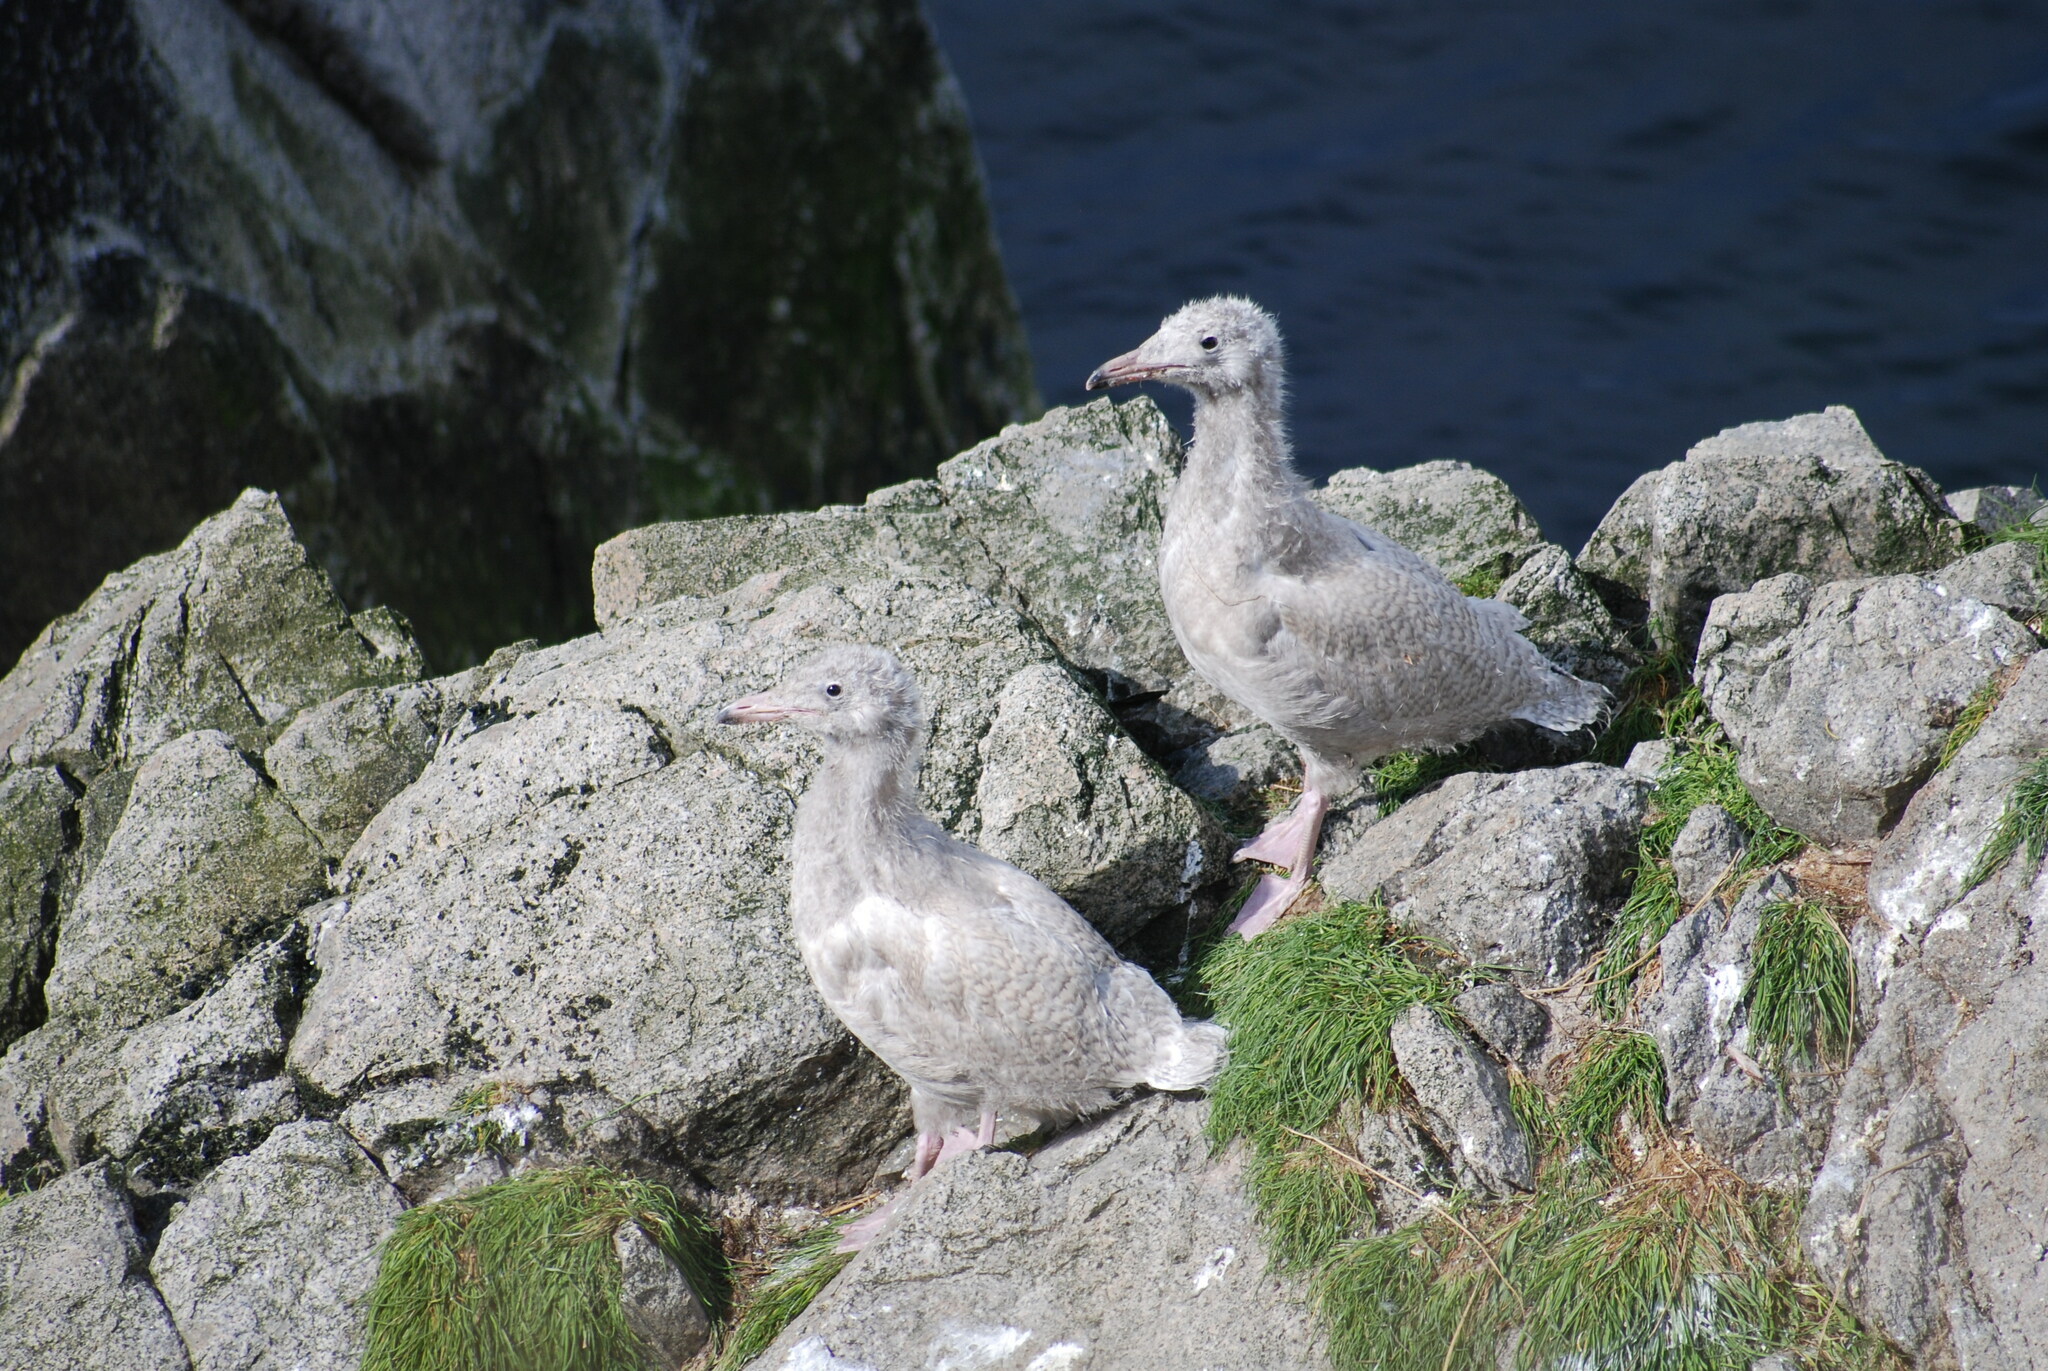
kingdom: Animalia
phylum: Chordata
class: Aves
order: Charadriiformes
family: Laridae
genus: Larus
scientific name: Larus hyperboreus
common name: Glaucous gull
